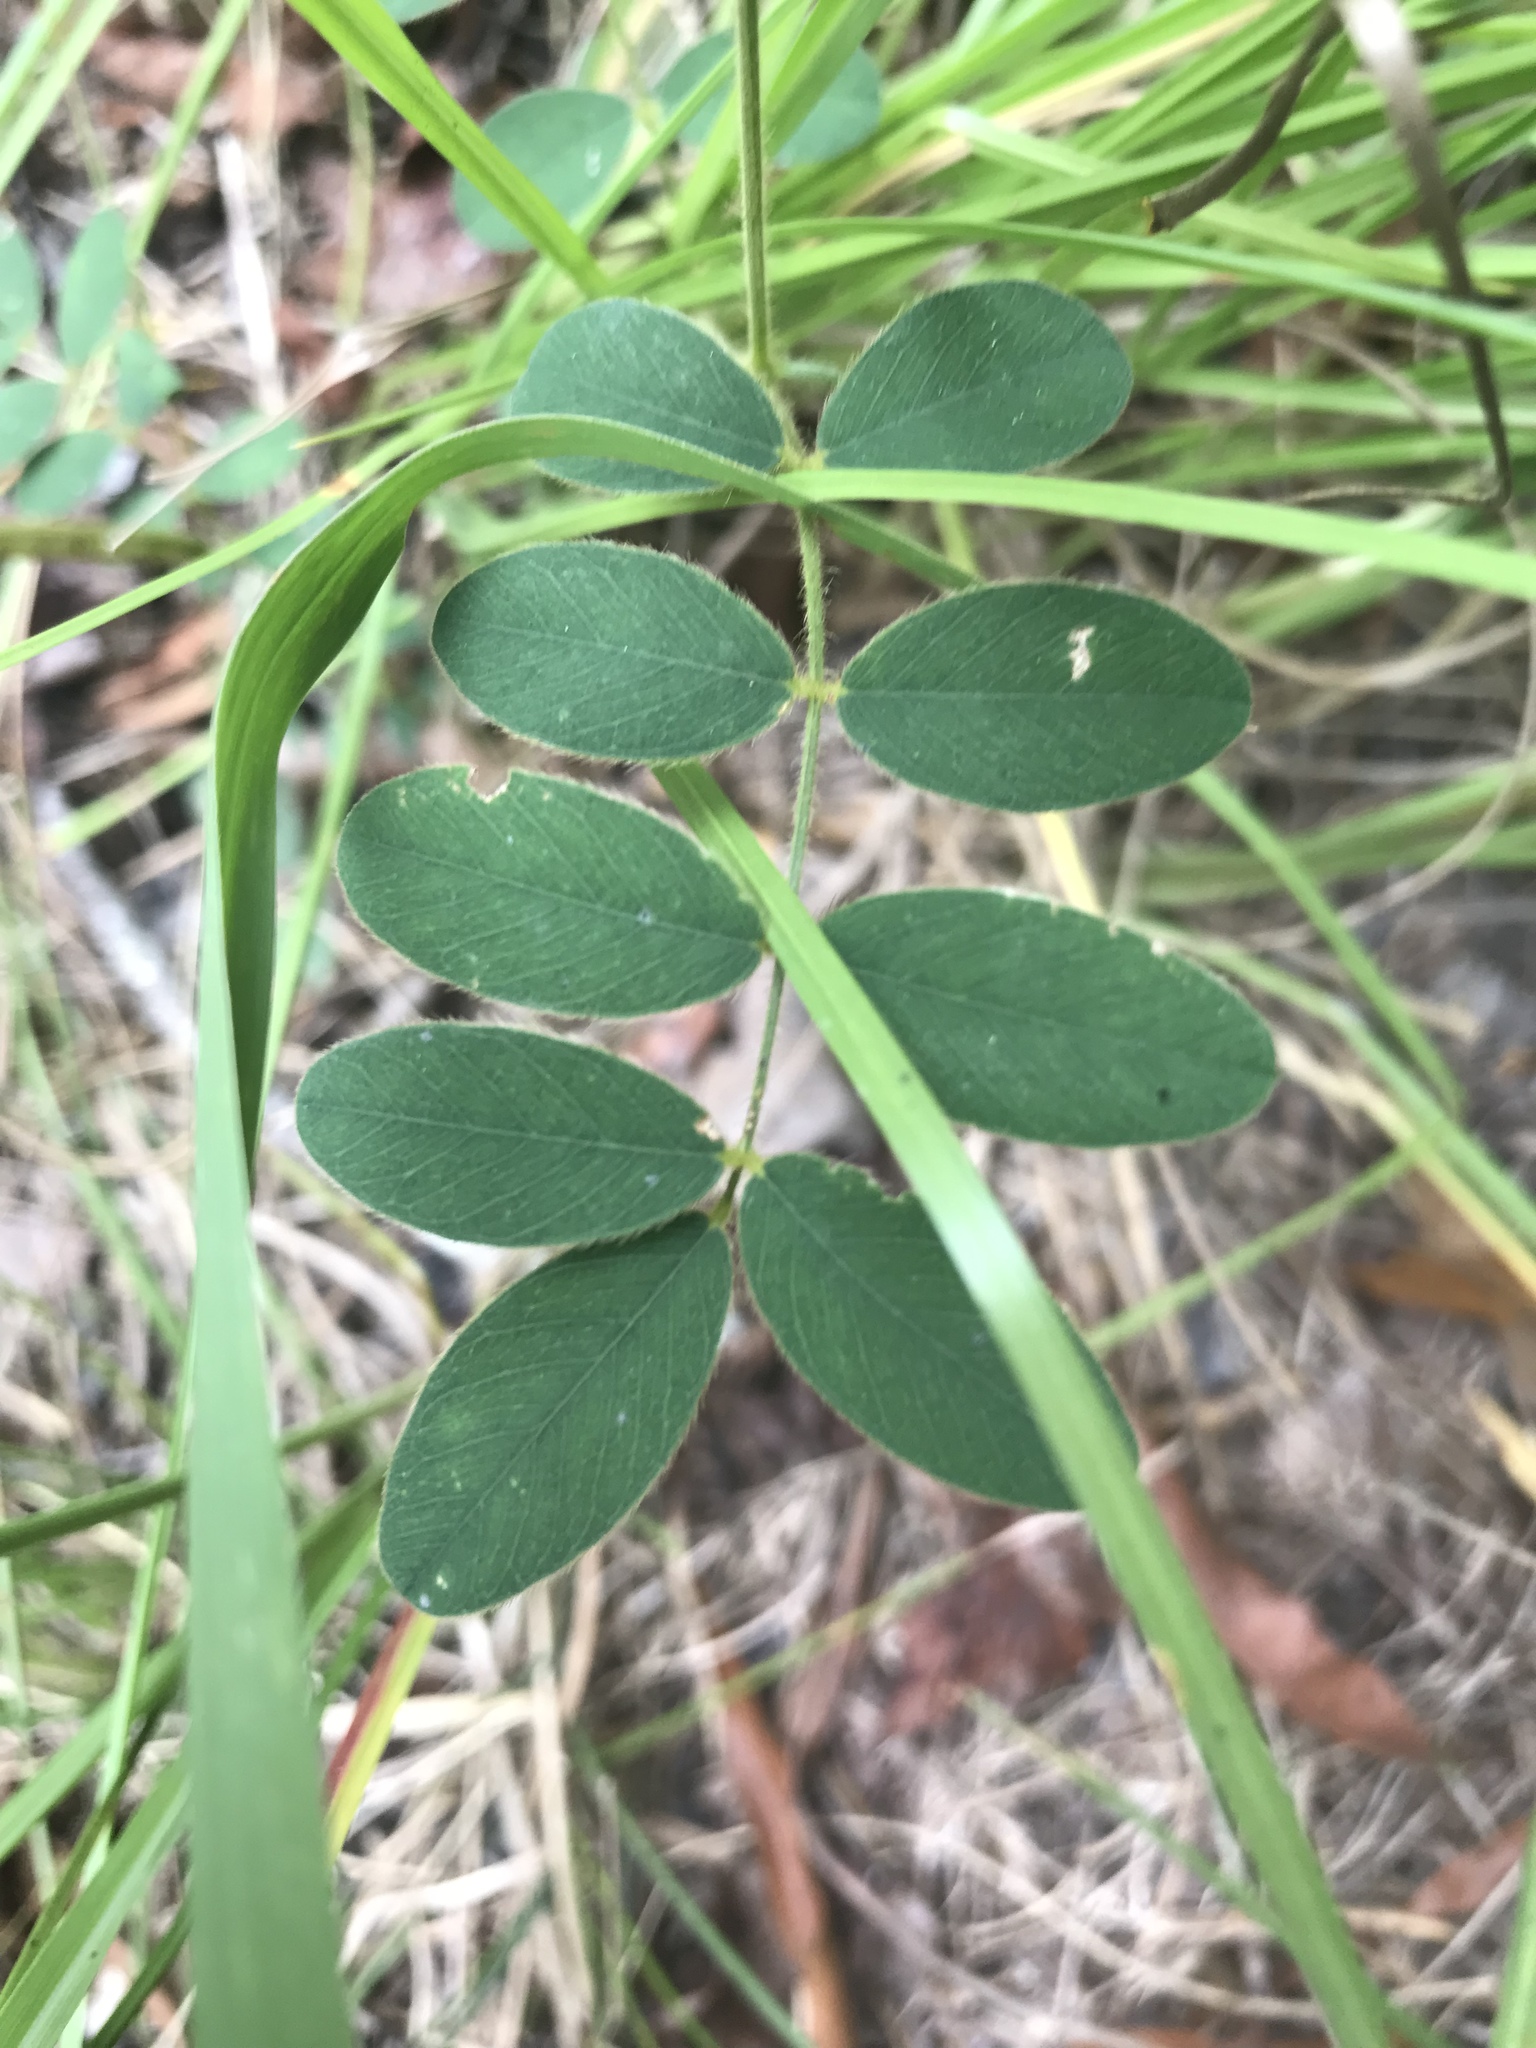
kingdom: Plantae
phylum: Tracheophyta
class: Magnoliopsida
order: Fabales
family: Fabaceae
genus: Tephrosia
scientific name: Tephrosia virginiana
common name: Rabbit-pea
